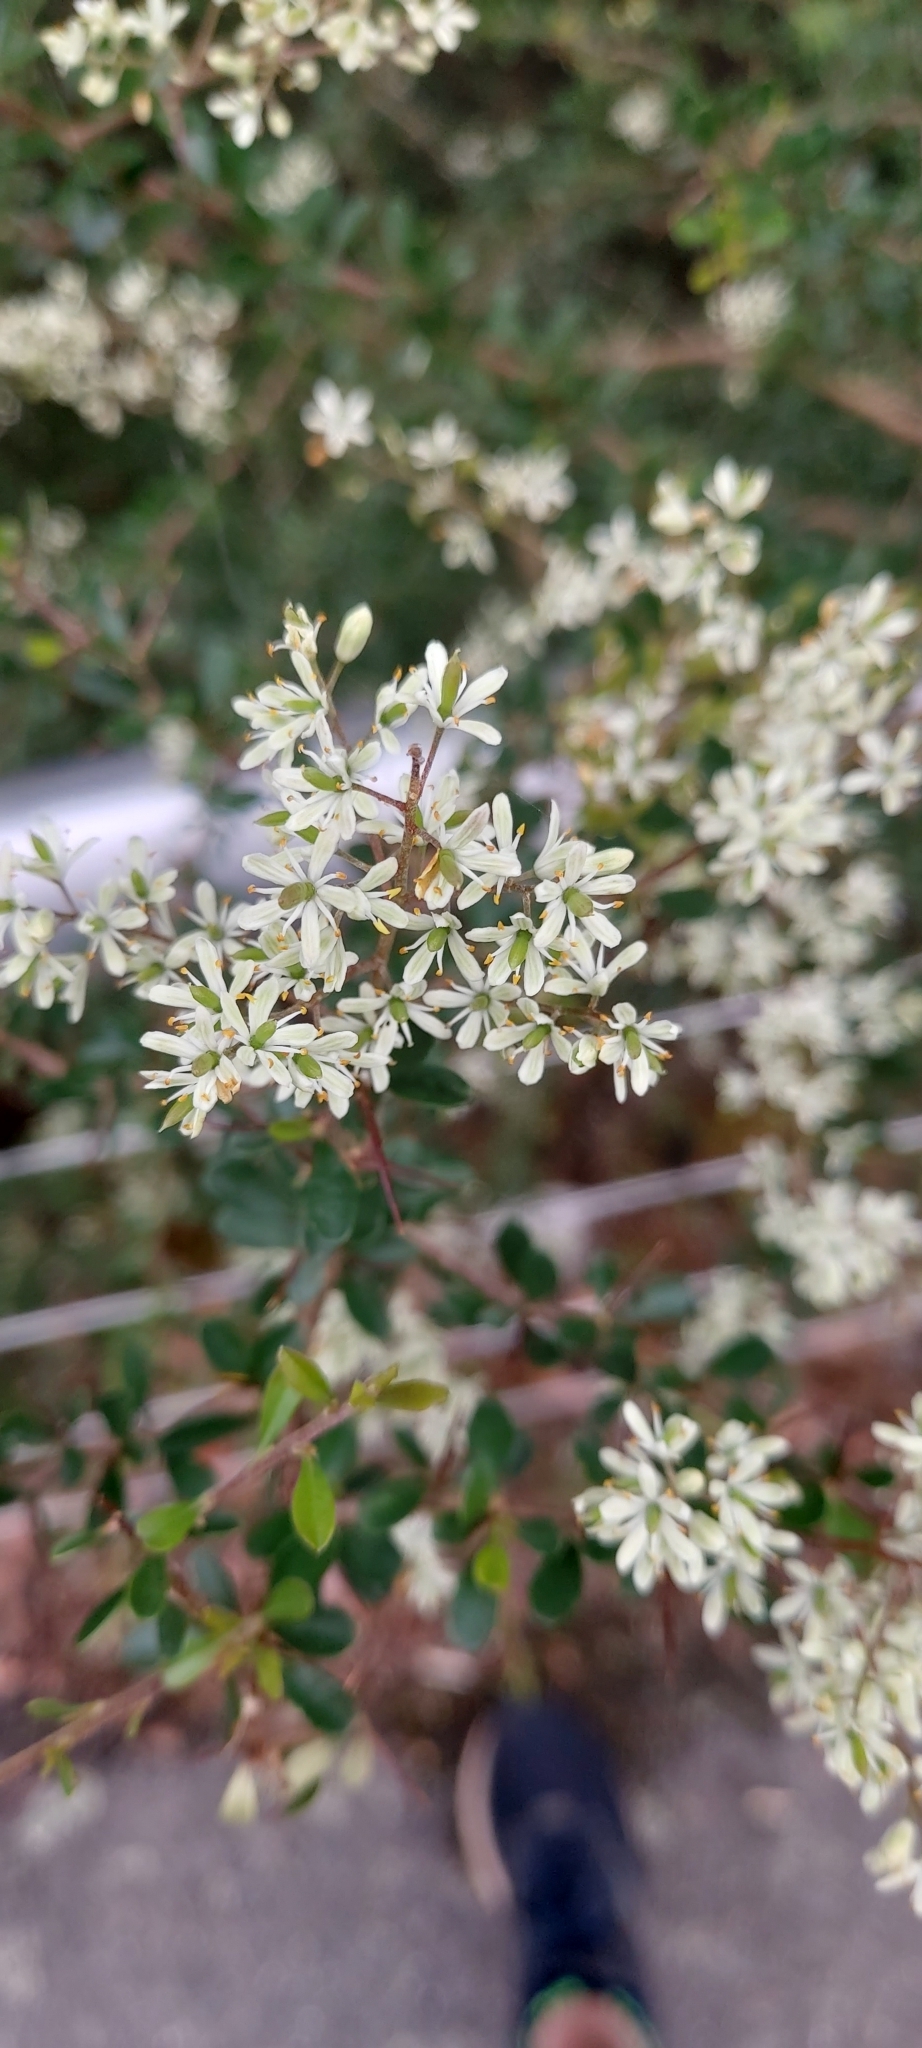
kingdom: Plantae
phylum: Tracheophyta
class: Magnoliopsida
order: Apiales
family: Pittosporaceae
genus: Bursaria
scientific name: Bursaria spinosa
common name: Australian blackthorn
